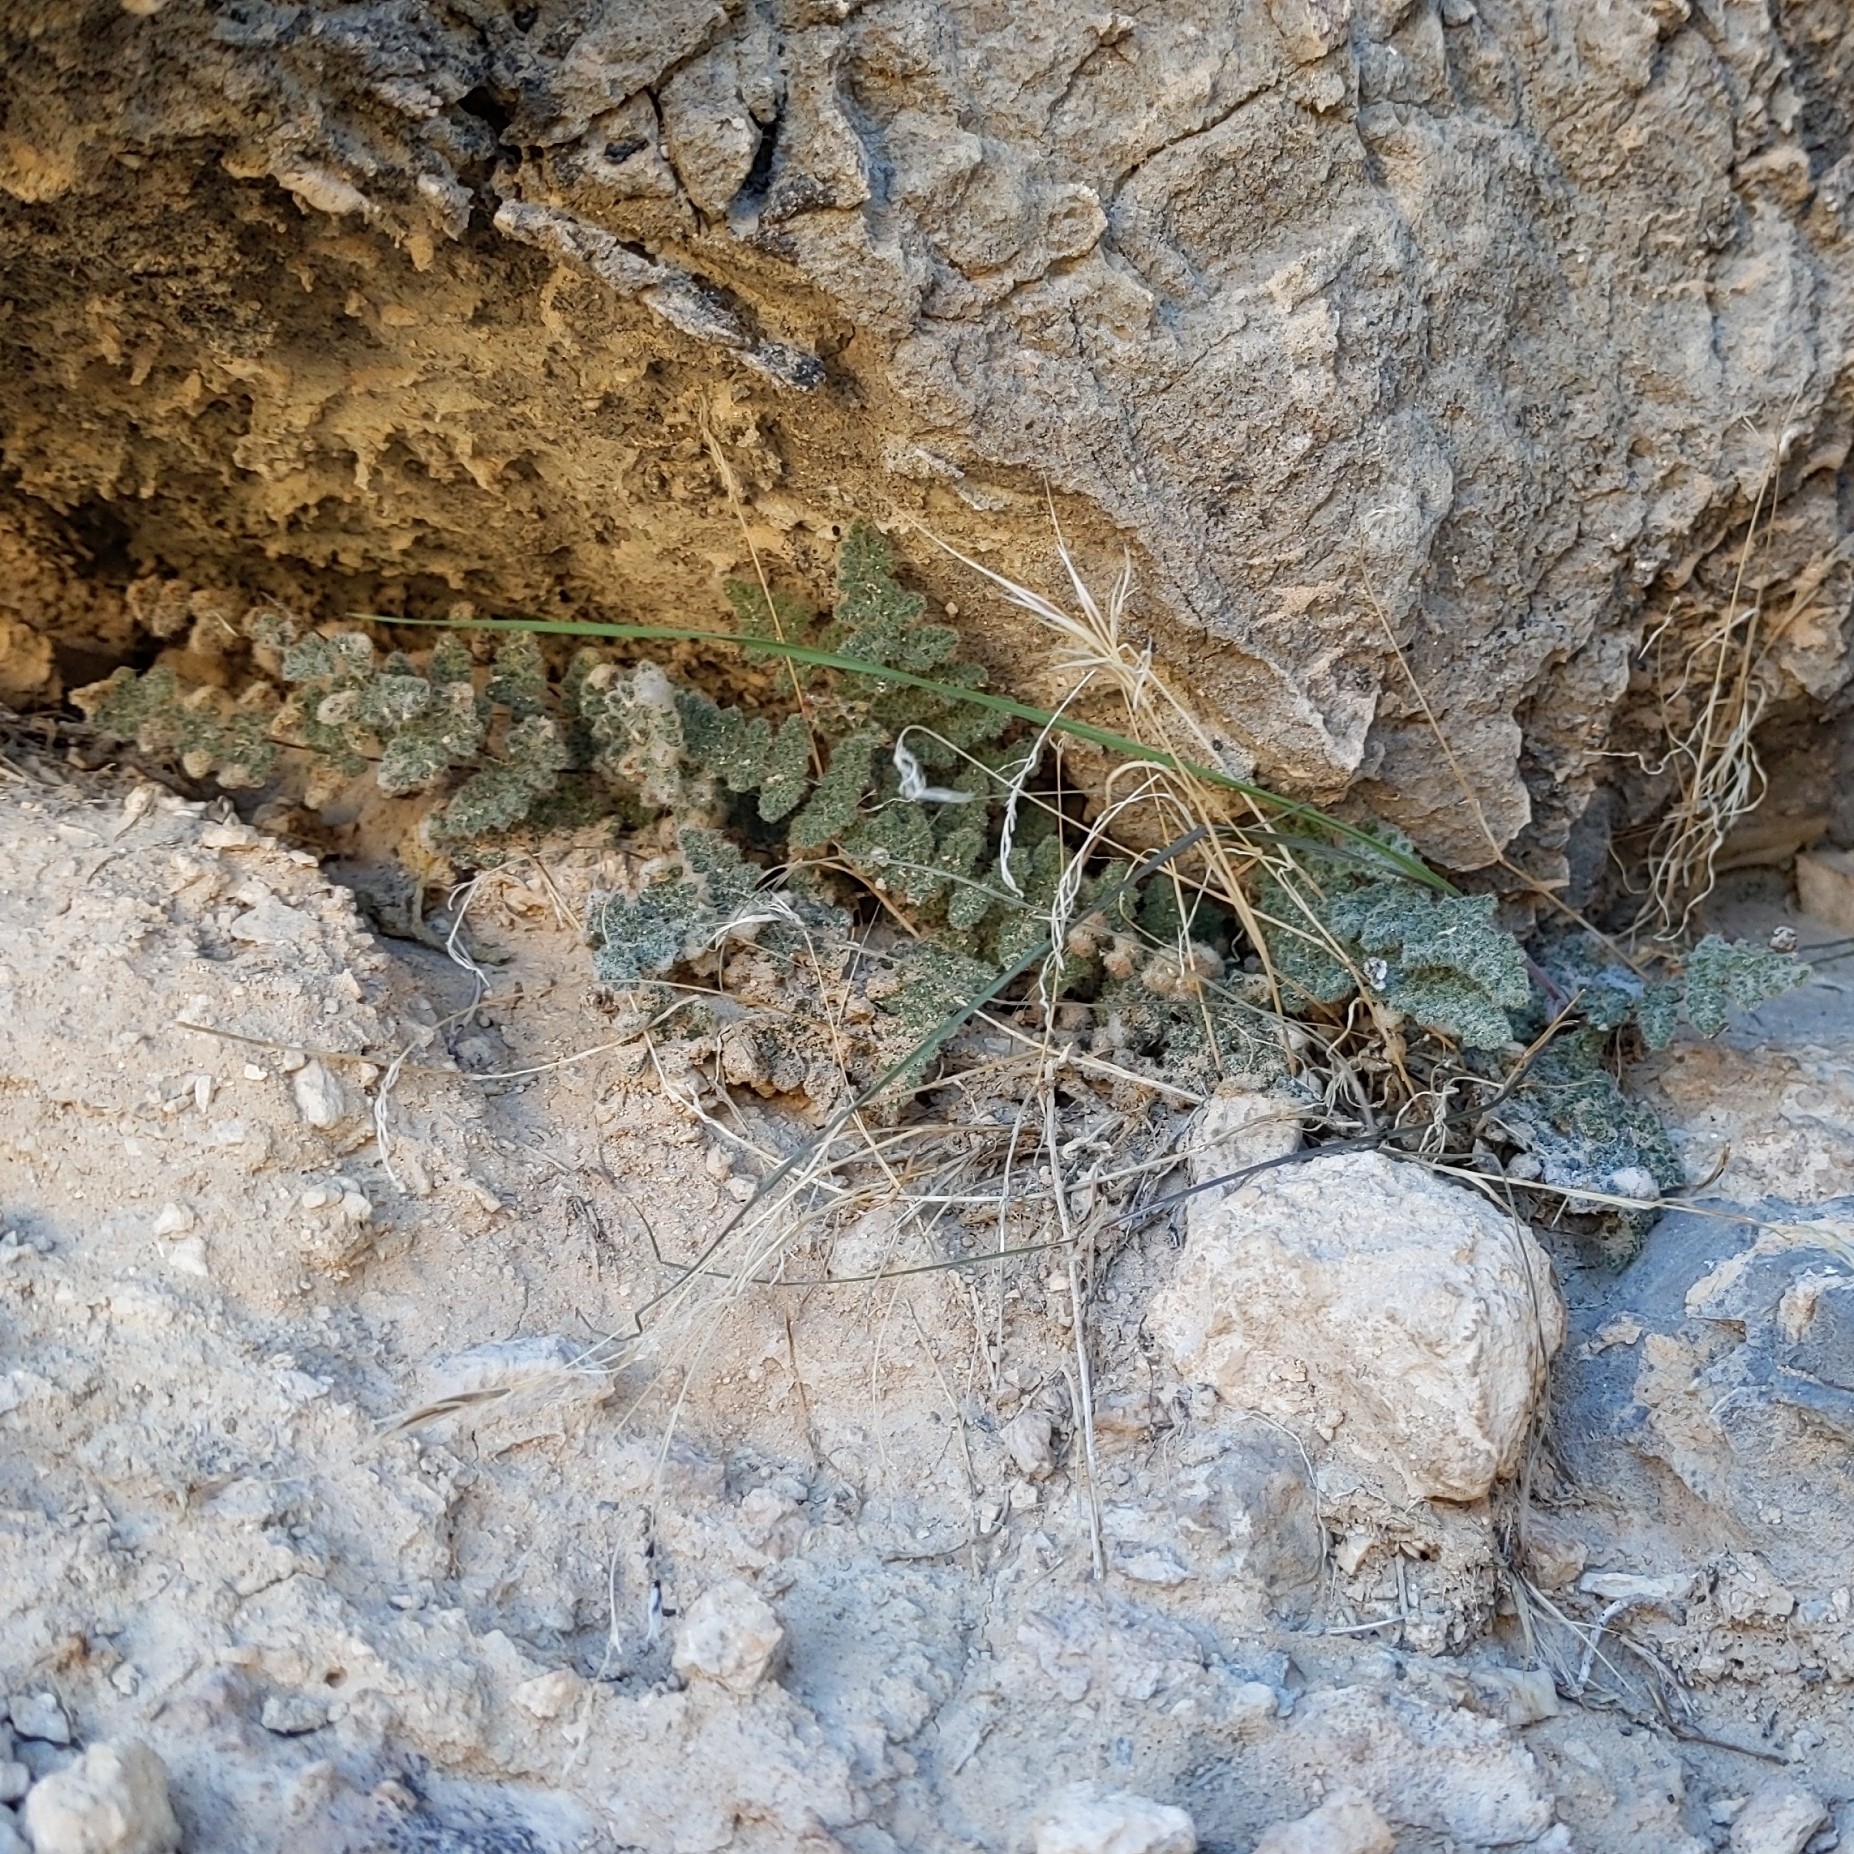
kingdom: Plantae
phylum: Tracheophyta
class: Polypodiopsida
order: Polypodiales
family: Pteridaceae
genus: Myriopteris
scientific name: Myriopteris parryi
